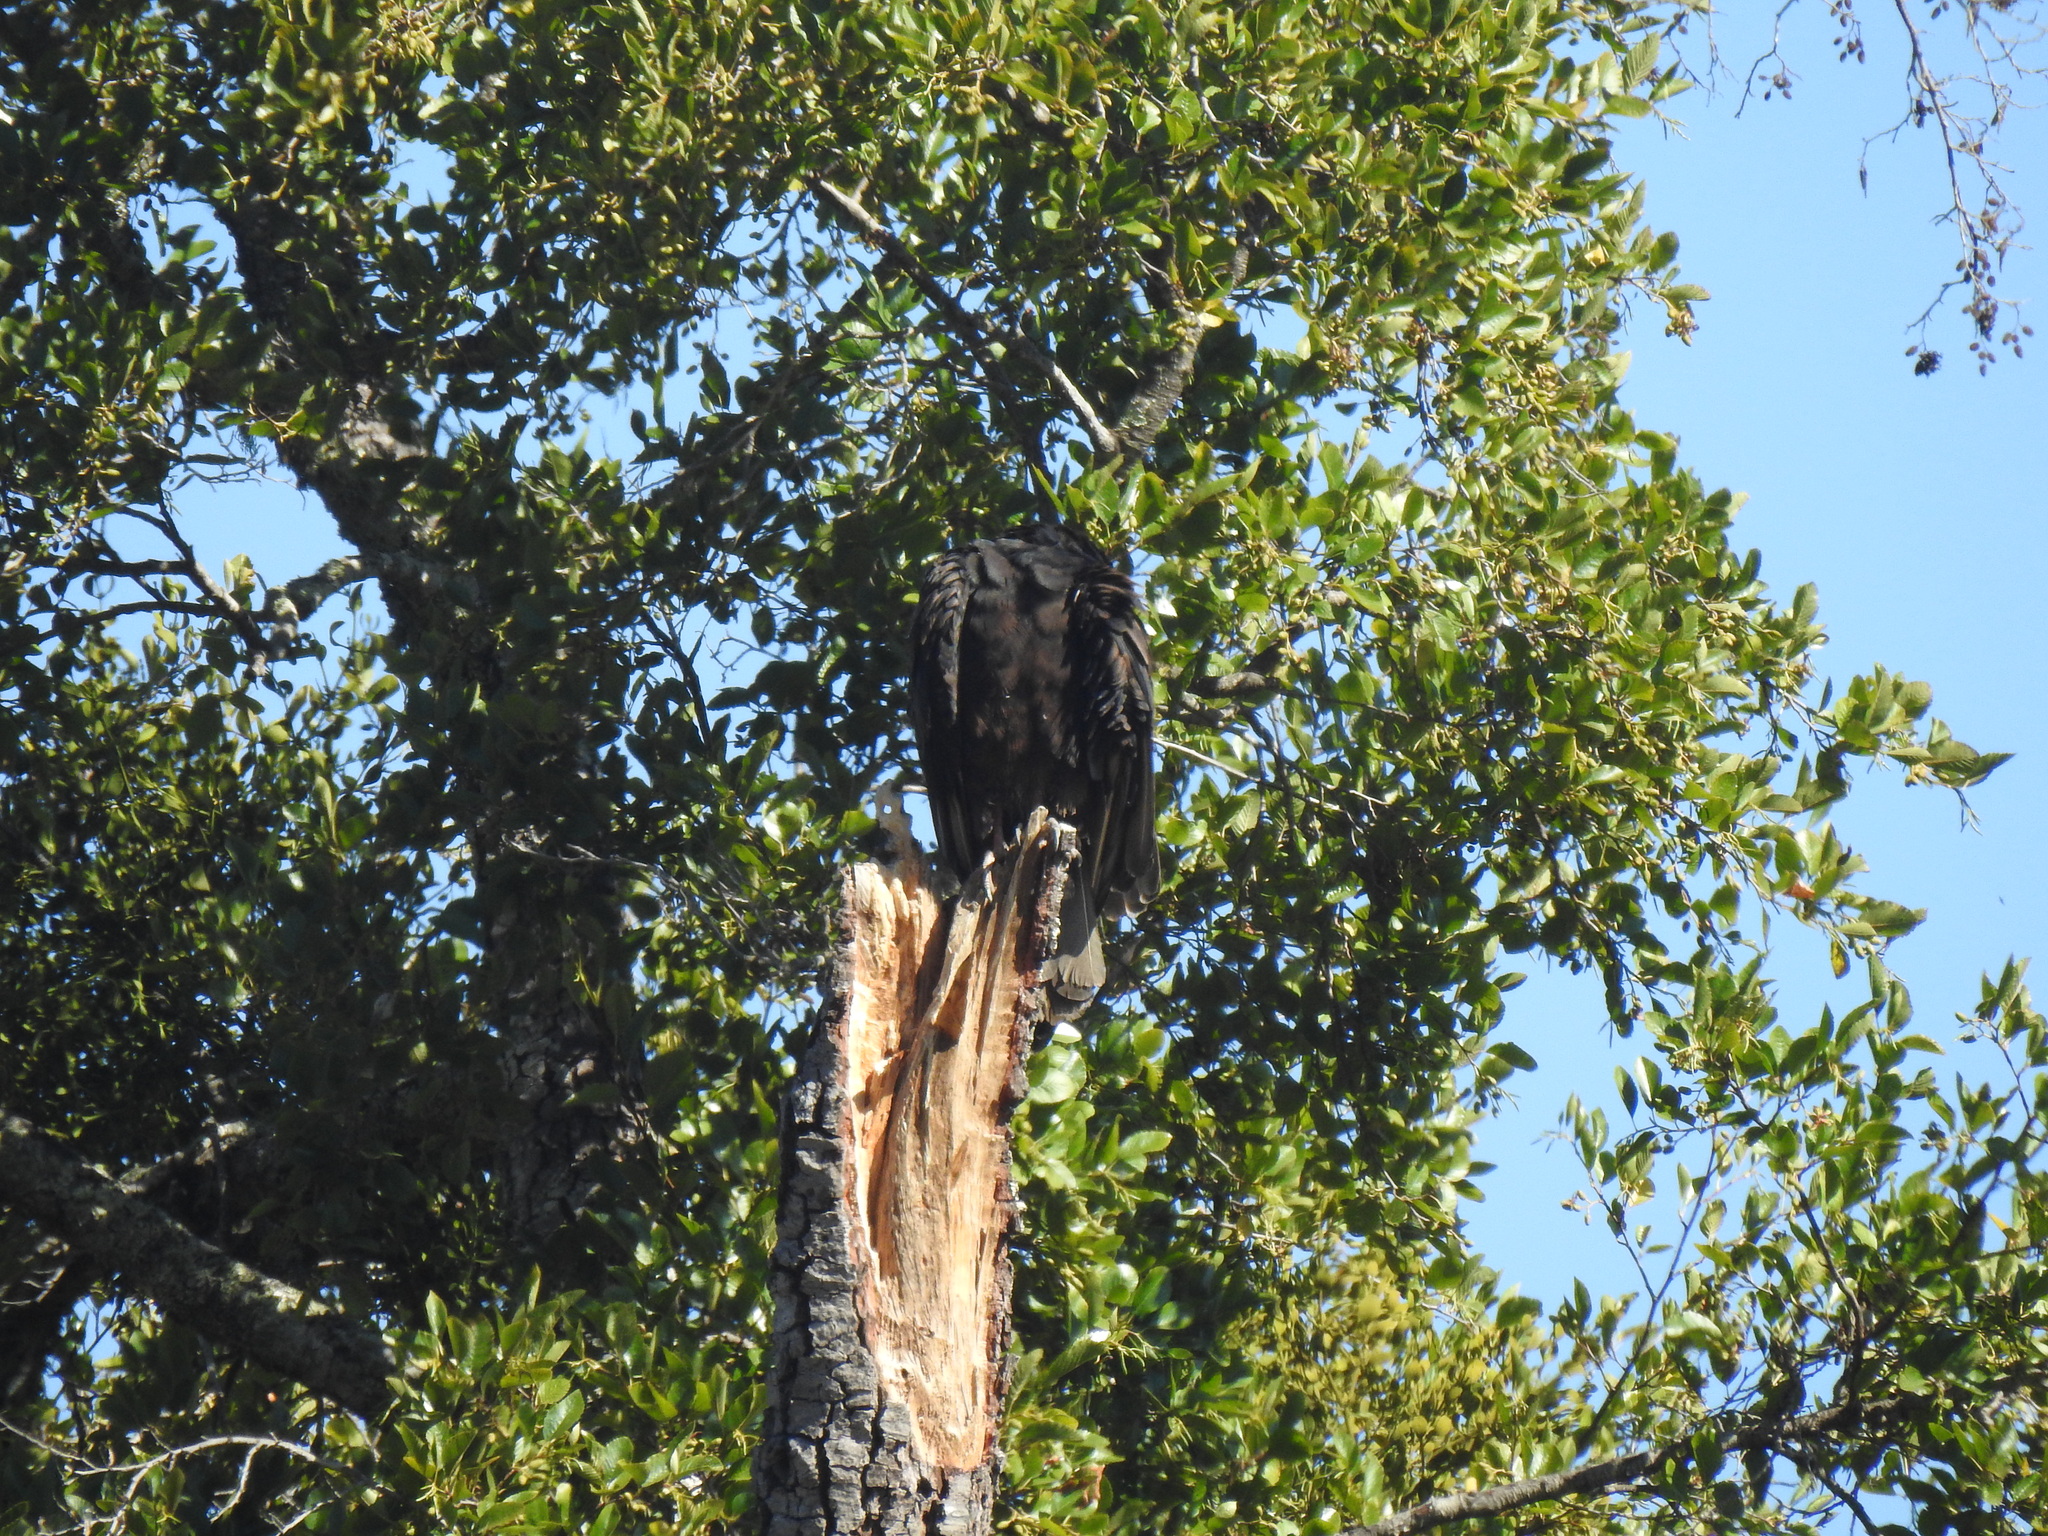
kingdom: Animalia
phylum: Chordata
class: Aves
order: Accipitriformes
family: Cathartidae
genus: Cathartes
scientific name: Cathartes aura
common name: Turkey vulture
